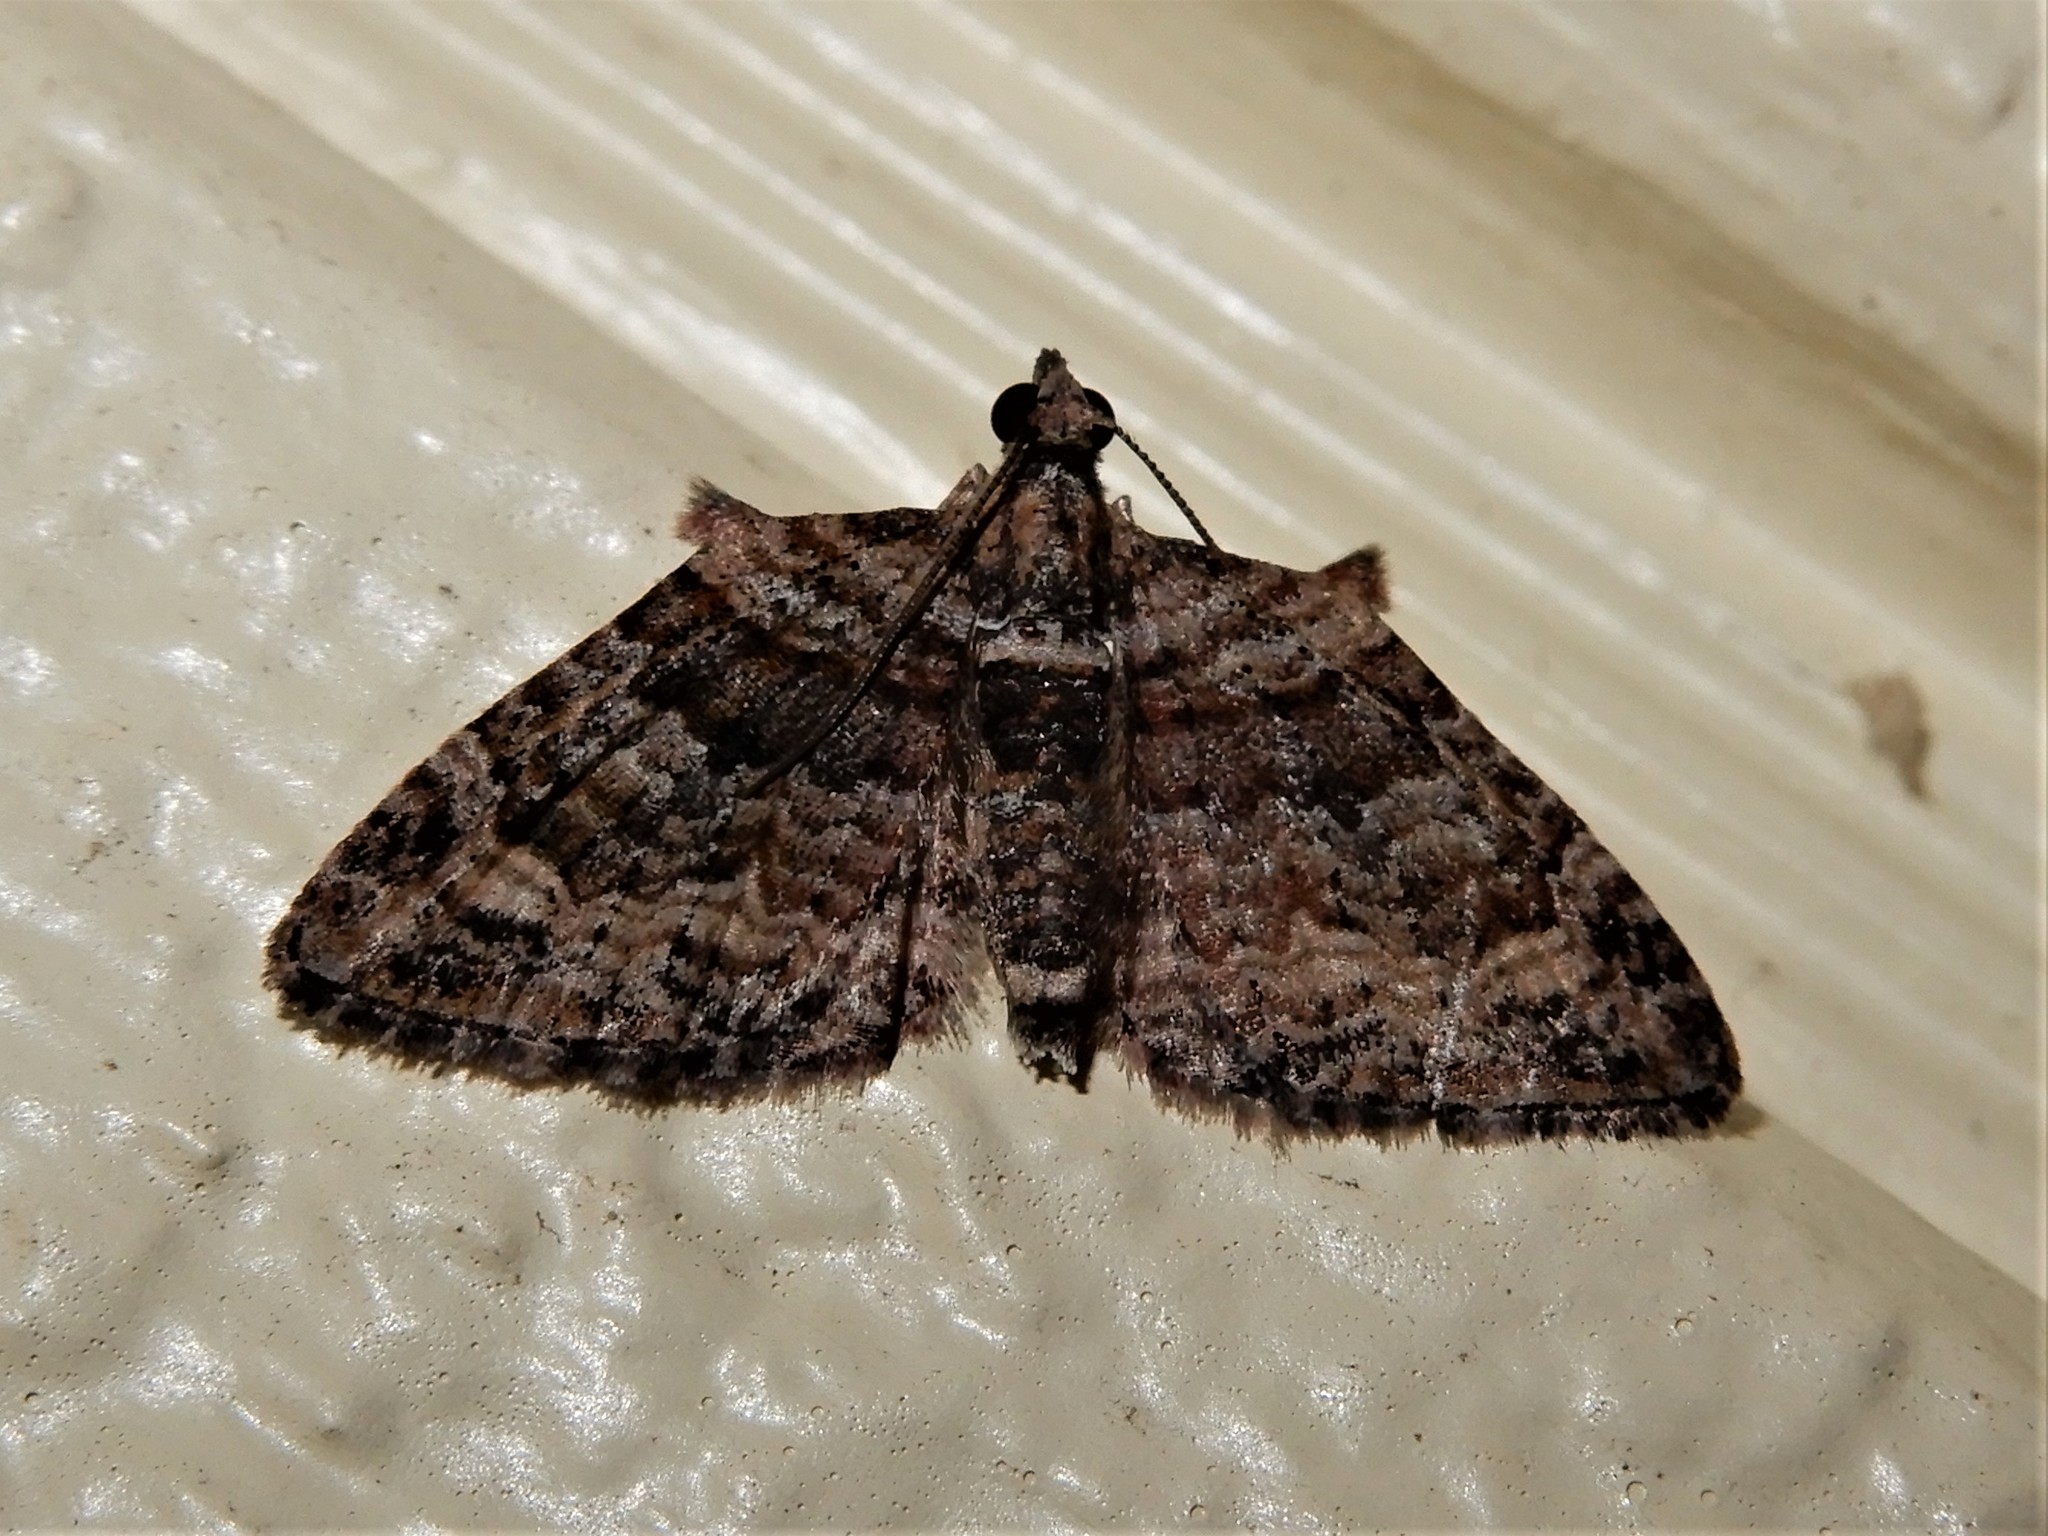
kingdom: Animalia
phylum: Arthropoda
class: Insecta
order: Lepidoptera
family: Geometridae
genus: Phrissogonus
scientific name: Phrissogonus laticostata
